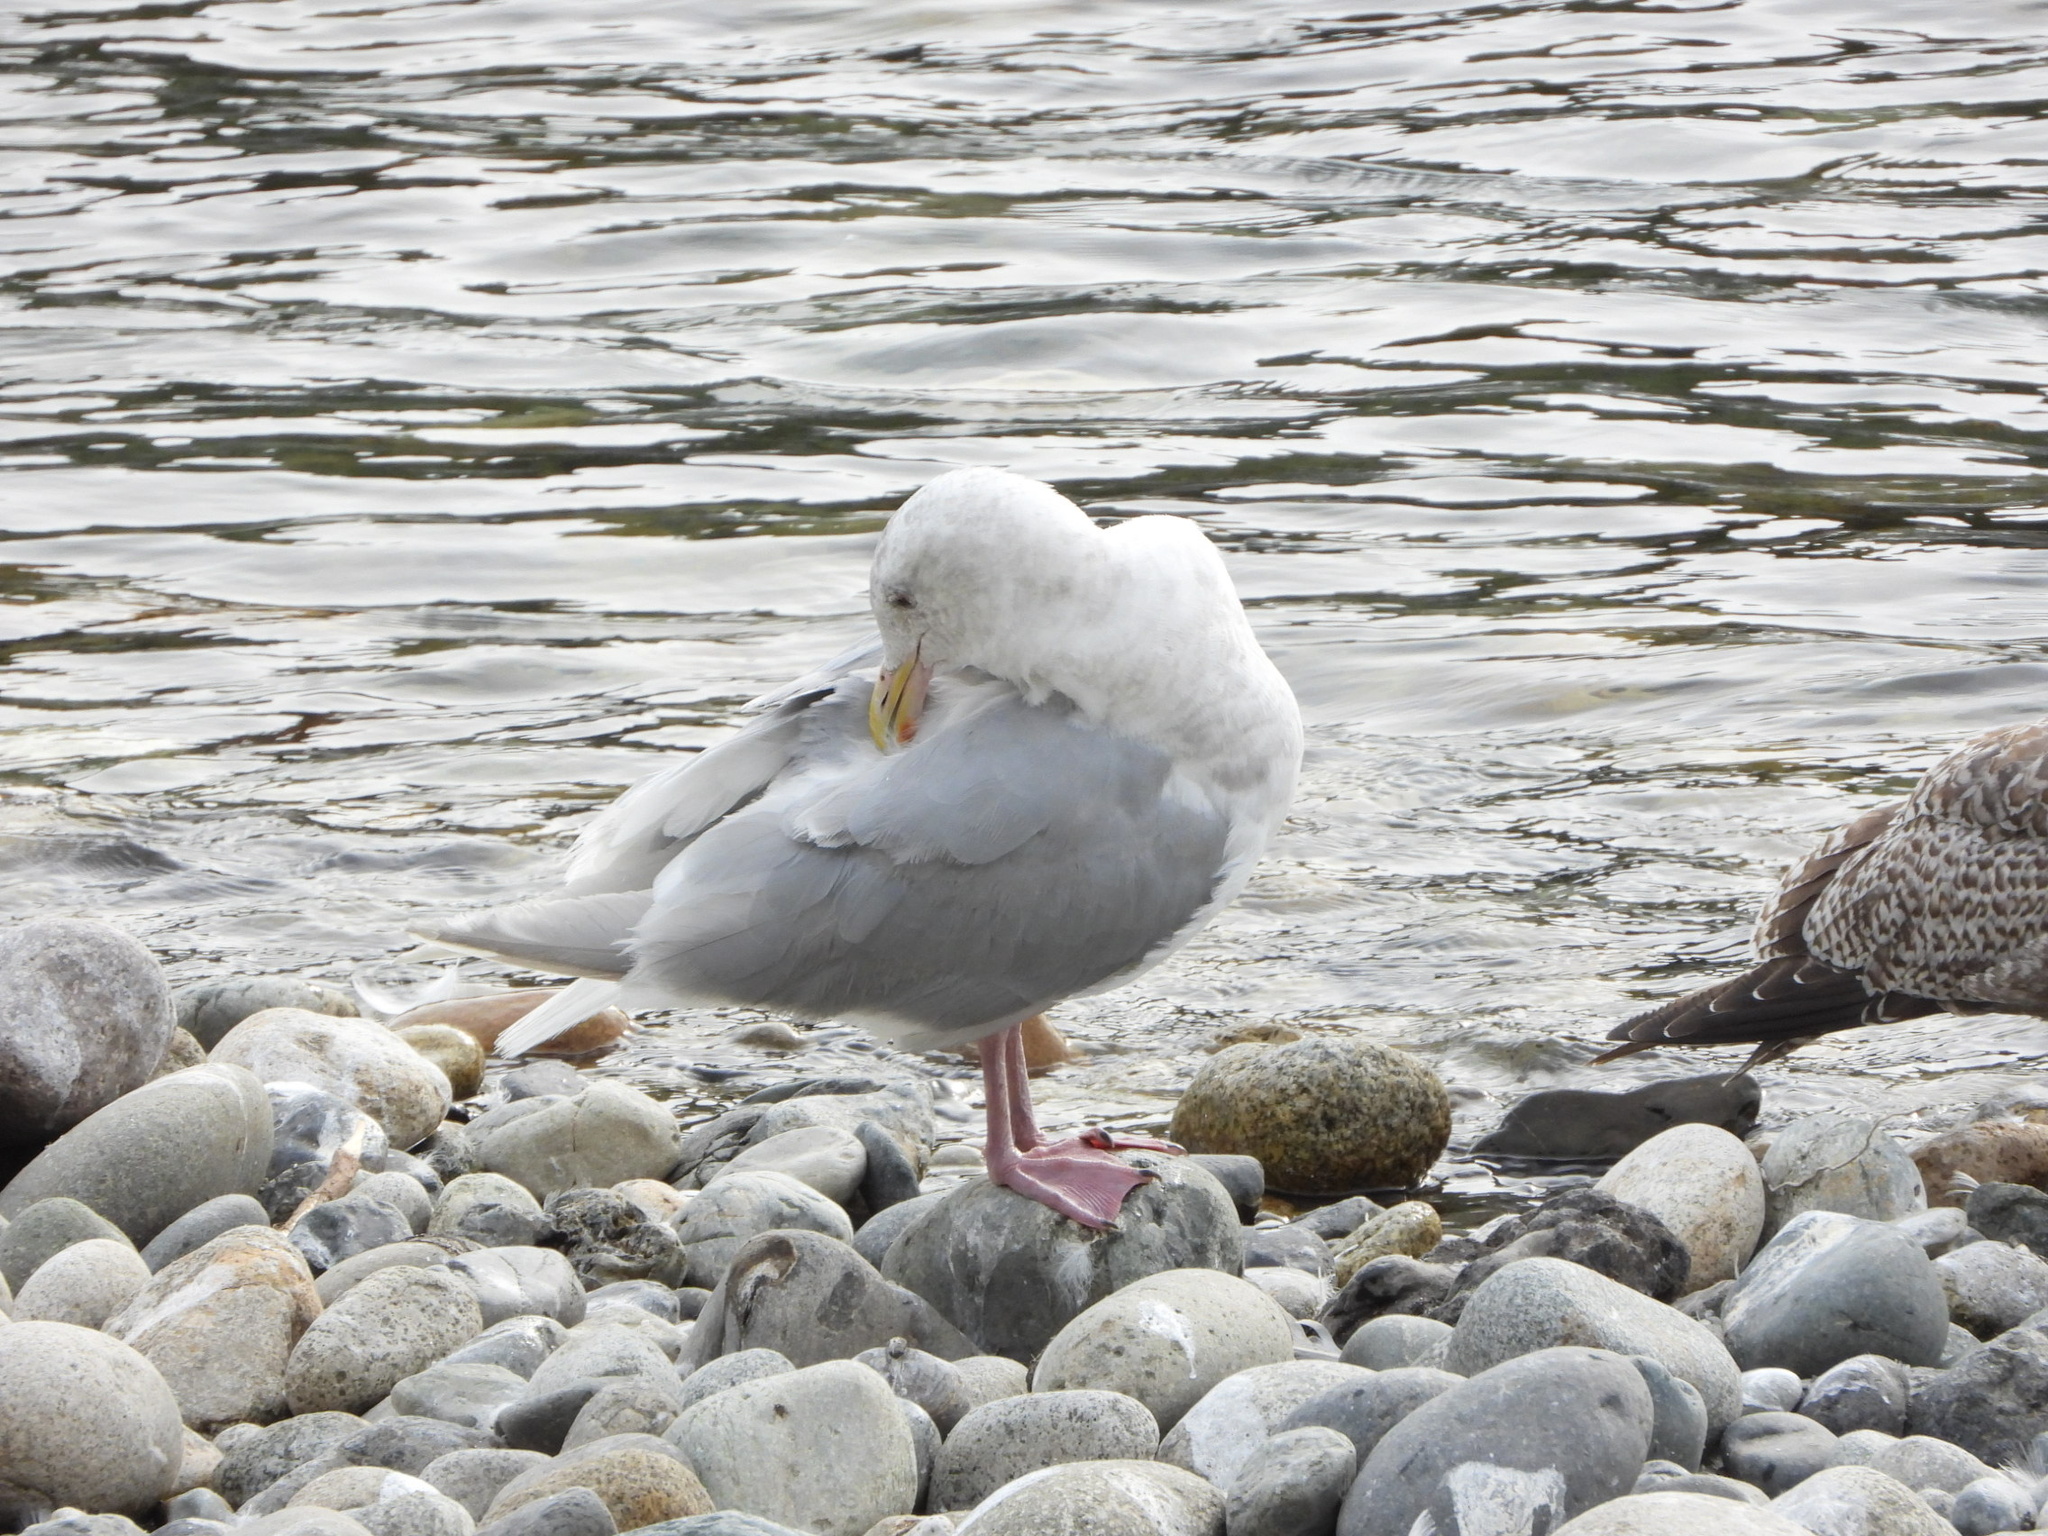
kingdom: Animalia
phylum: Chordata
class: Aves
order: Charadriiformes
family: Laridae
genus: Larus
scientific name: Larus glaucescens
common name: Glaucous-winged gull
